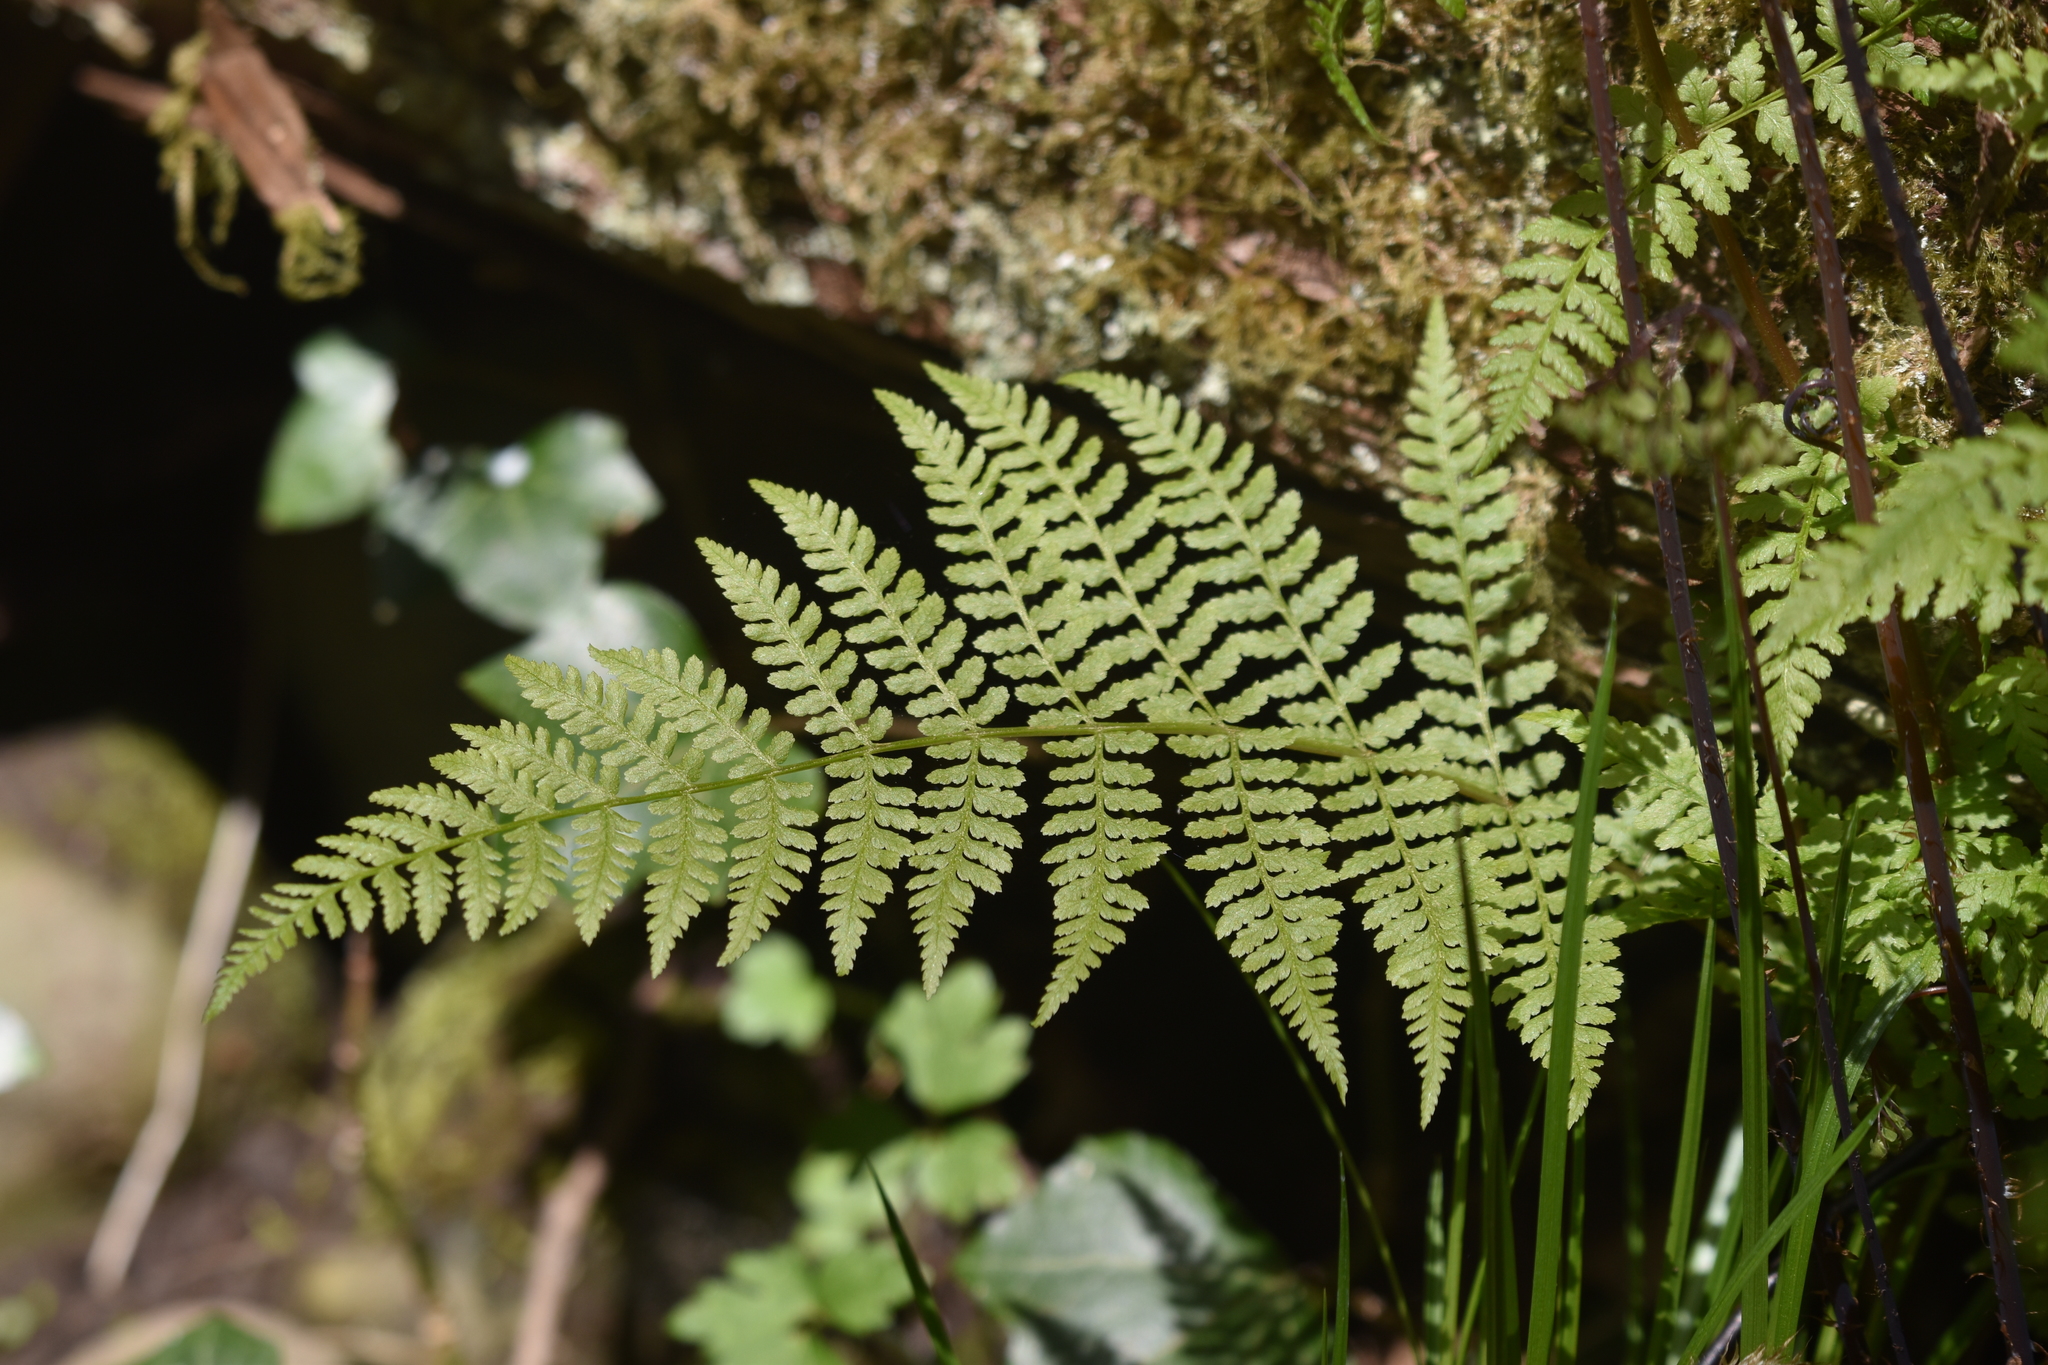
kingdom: Plantae
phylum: Tracheophyta
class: Polypodiopsida
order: Polypodiales
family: Athyriaceae
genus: Athyrium
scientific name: Athyrium filix-femina
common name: Lady fern
